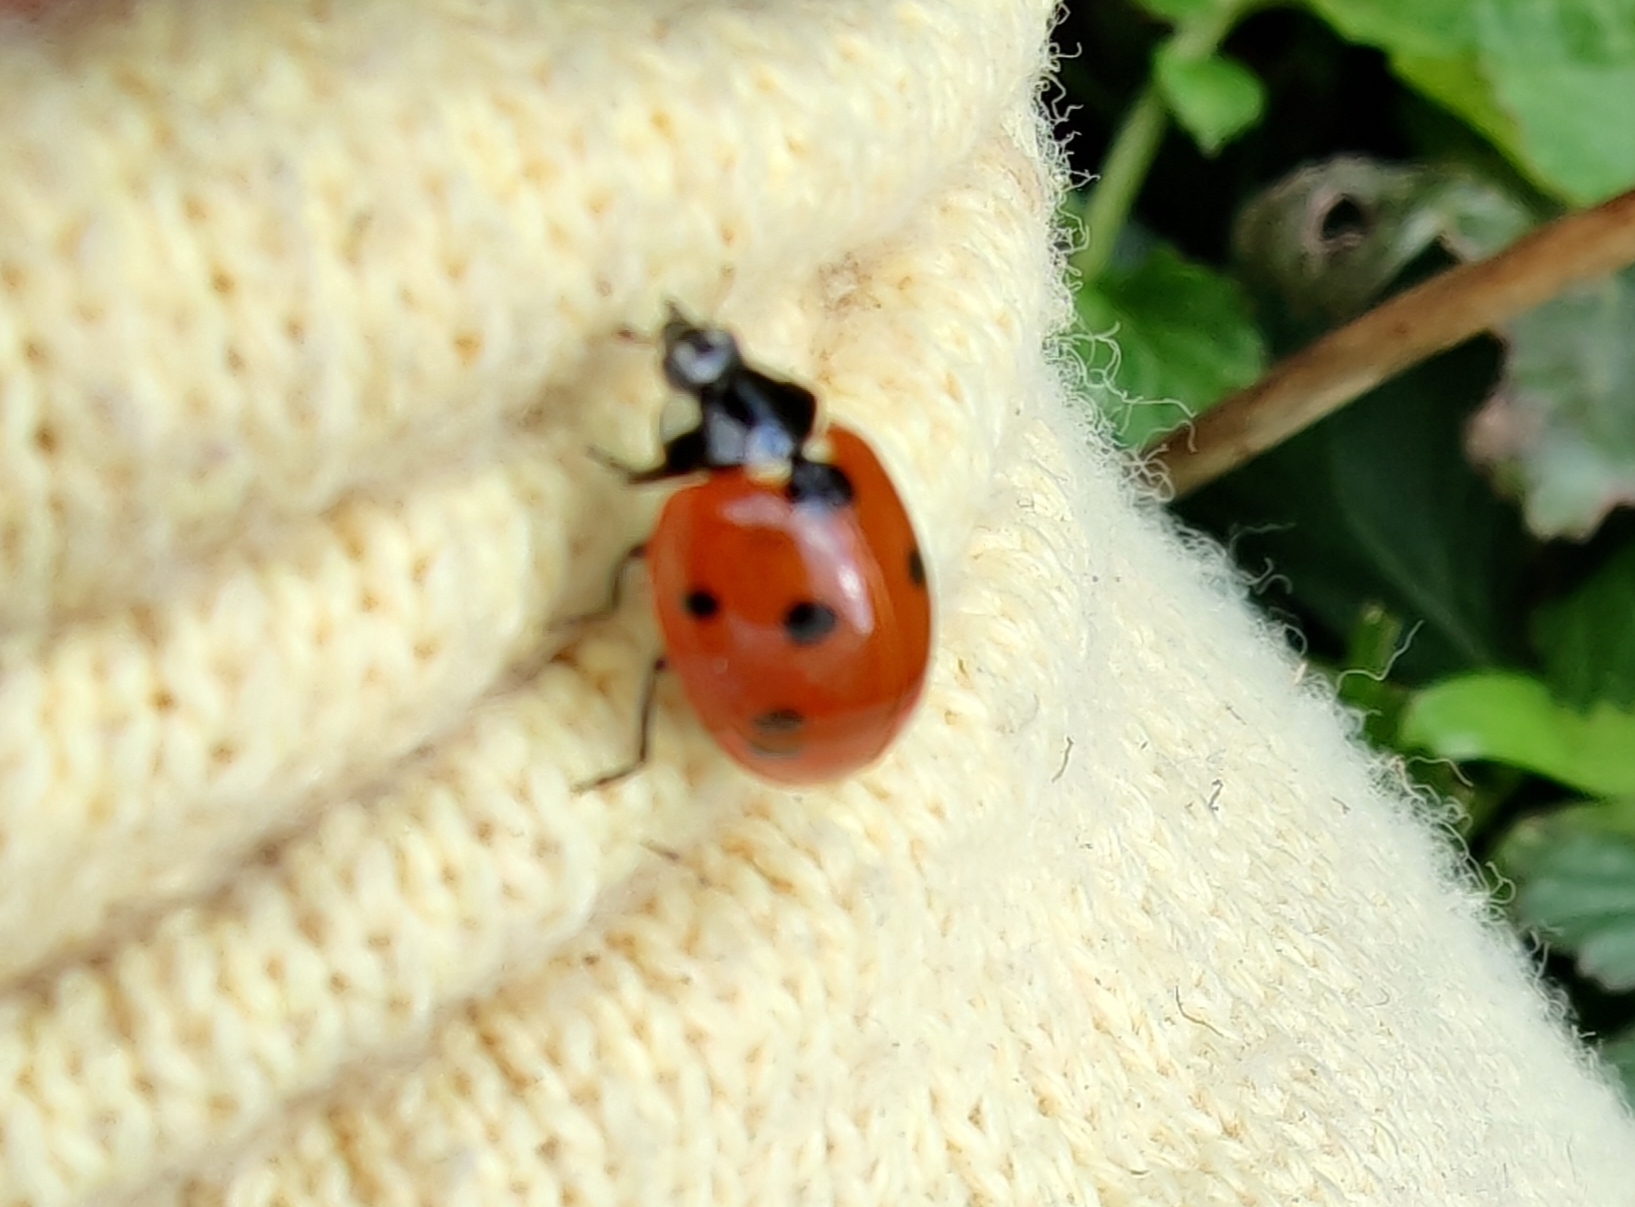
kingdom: Animalia
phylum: Arthropoda
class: Insecta
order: Coleoptera
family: Coccinellidae
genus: Coccinella
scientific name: Coccinella septempunctata
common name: Sevenspotted lady beetle
